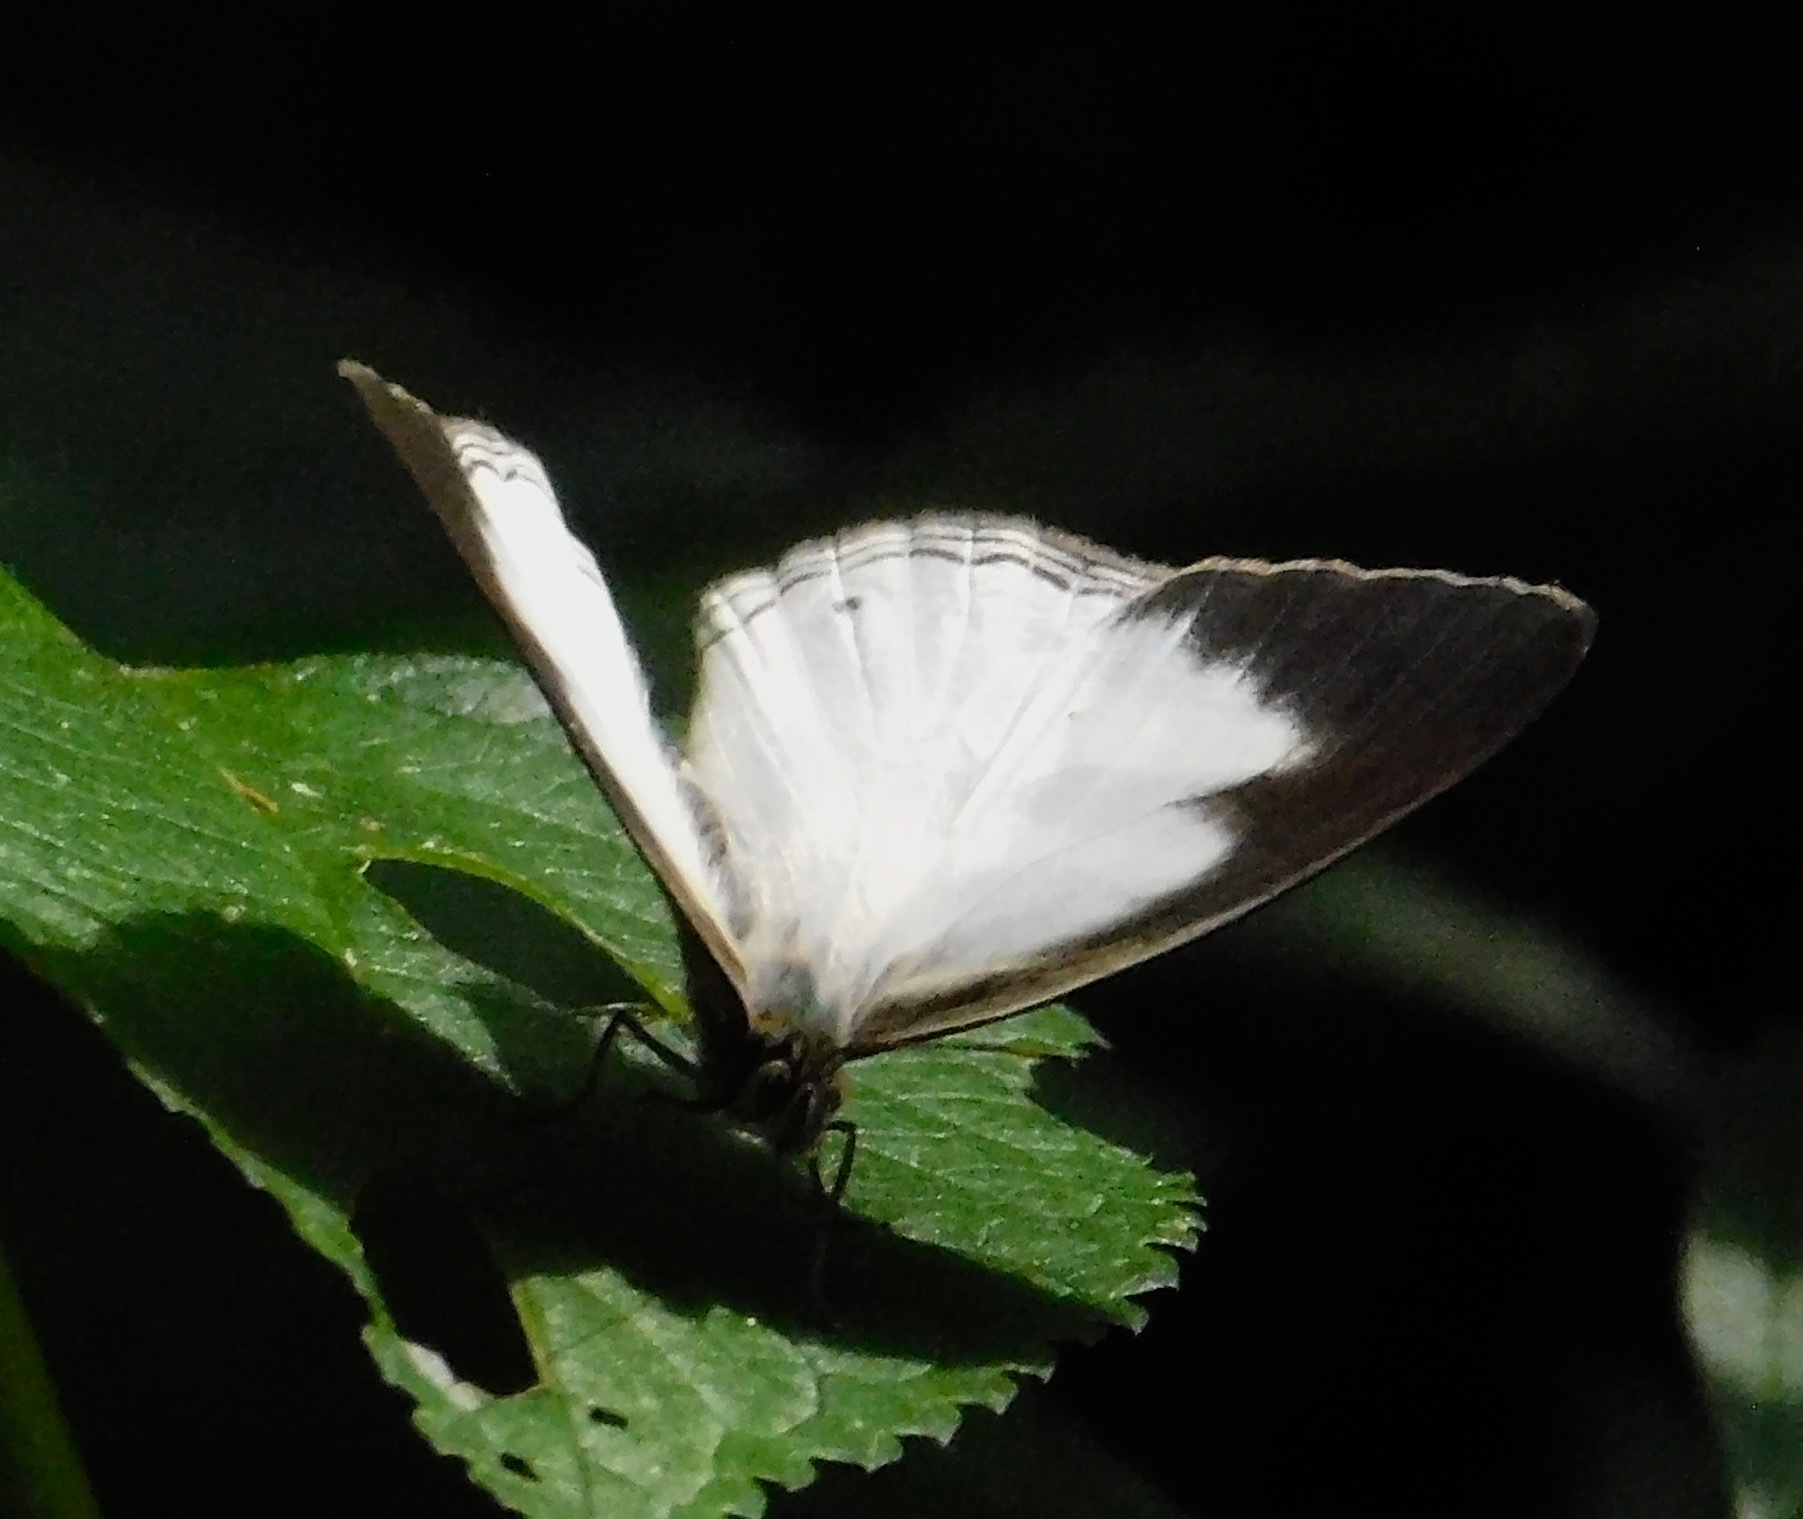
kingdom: Animalia
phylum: Arthropoda
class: Insecta
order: Lepidoptera
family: Nymphalidae
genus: Pareuptychia
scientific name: Pareuptychia hesionides
